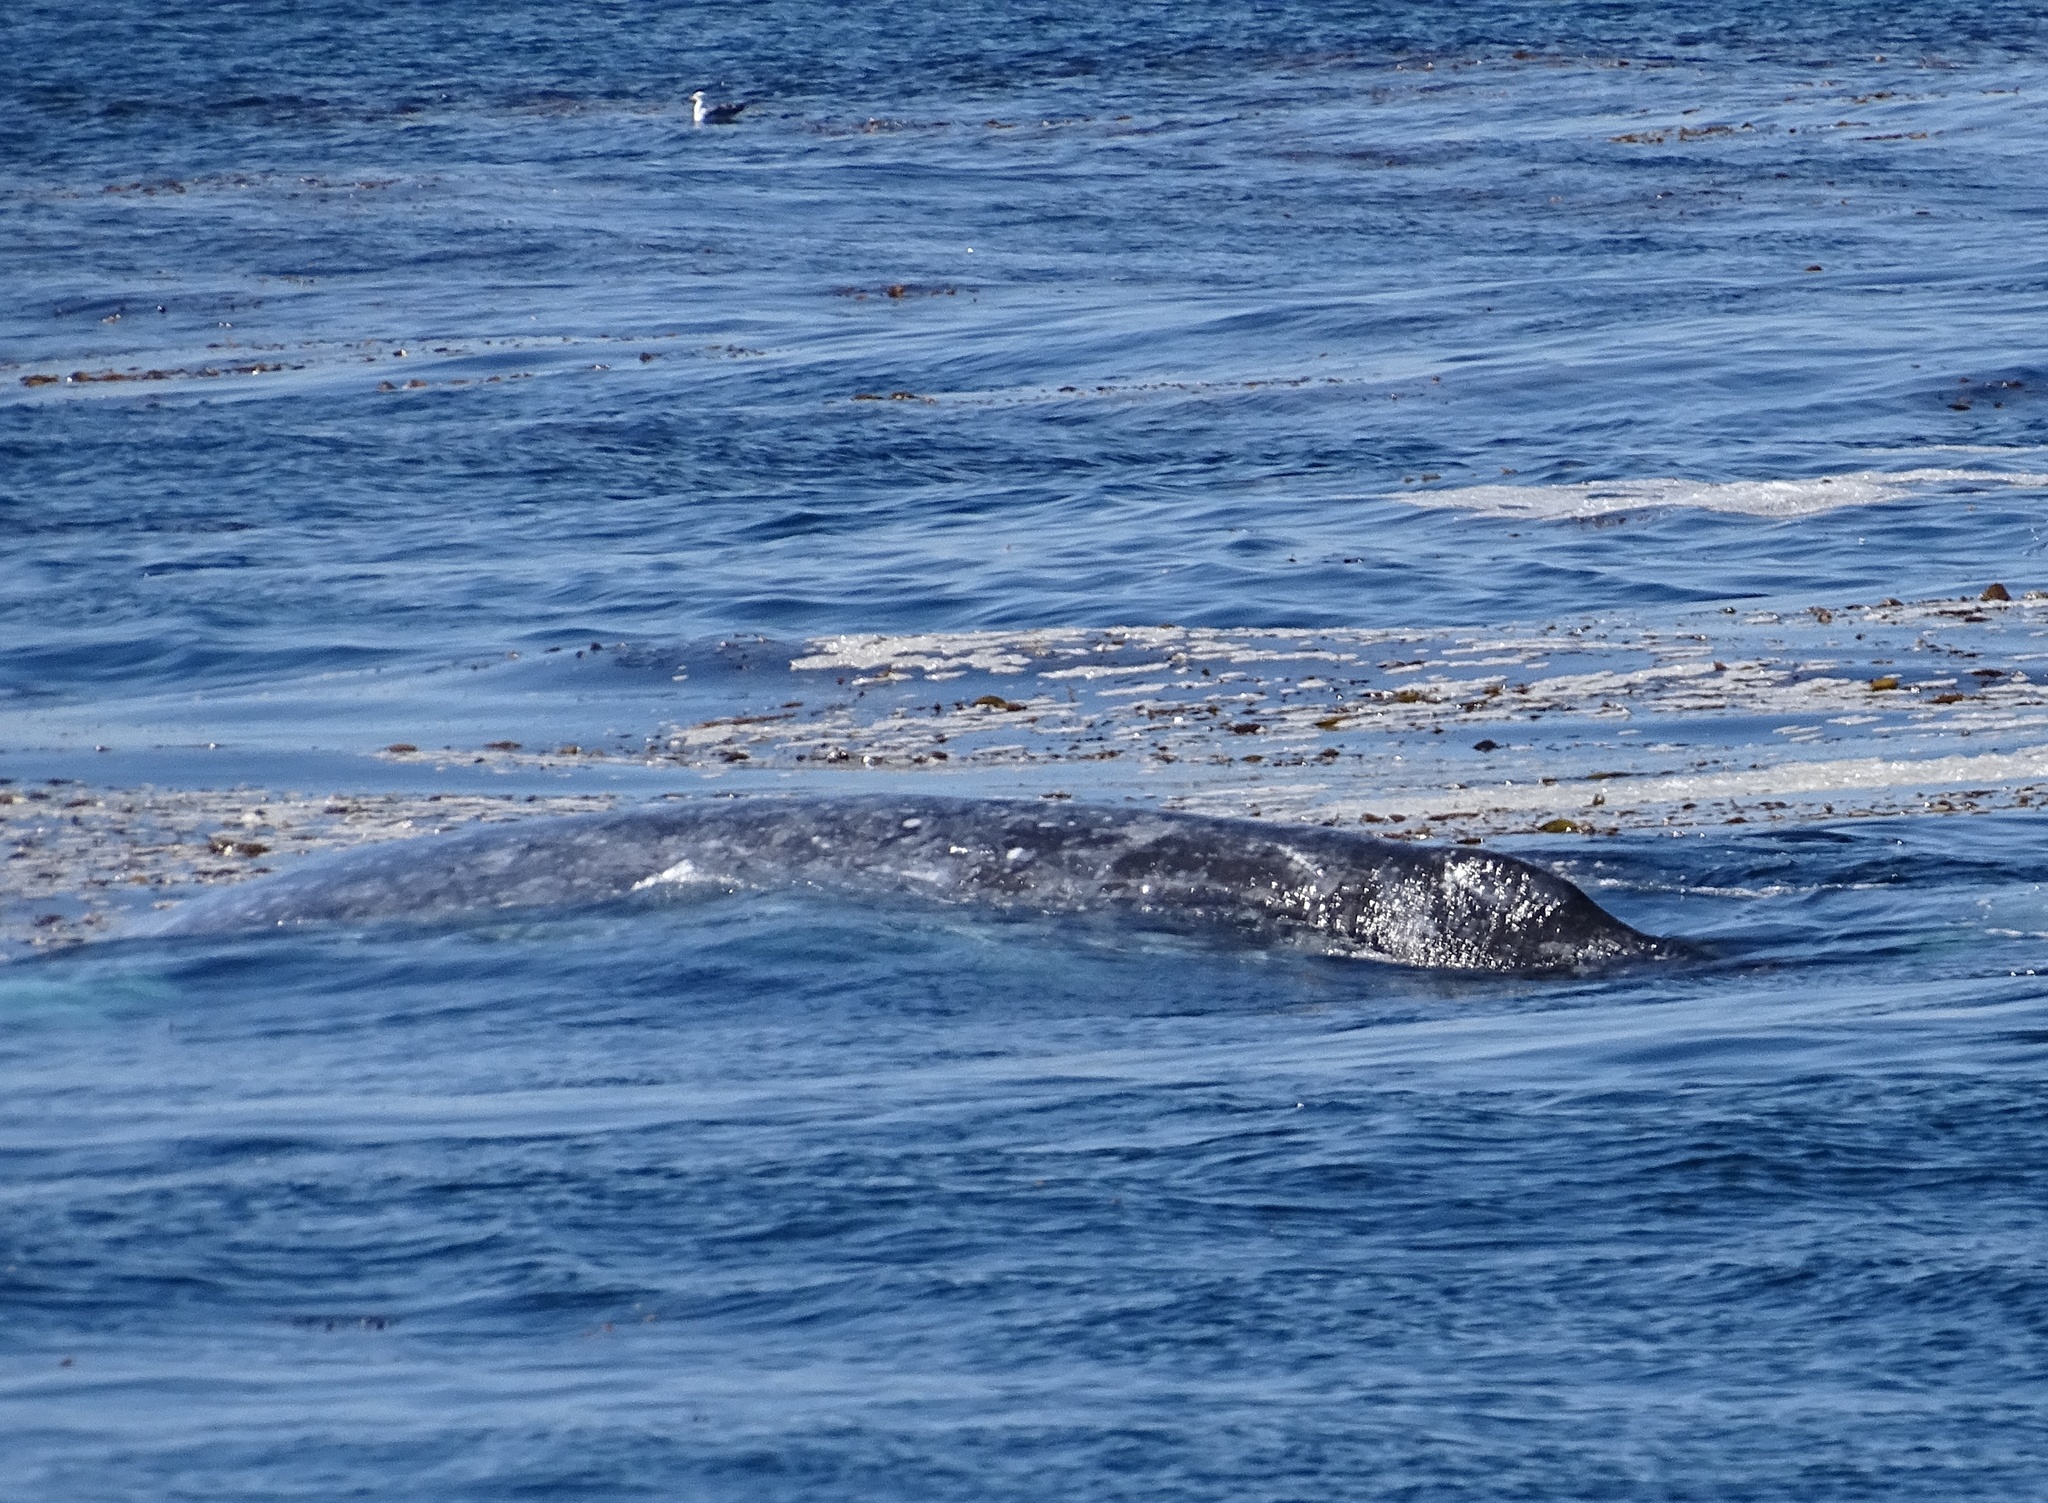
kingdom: Animalia
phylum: Chordata
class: Mammalia
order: Cetacea
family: Eschrichtiidae
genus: Eschrichtius
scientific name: Eschrichtius robustus
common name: Gray whale
